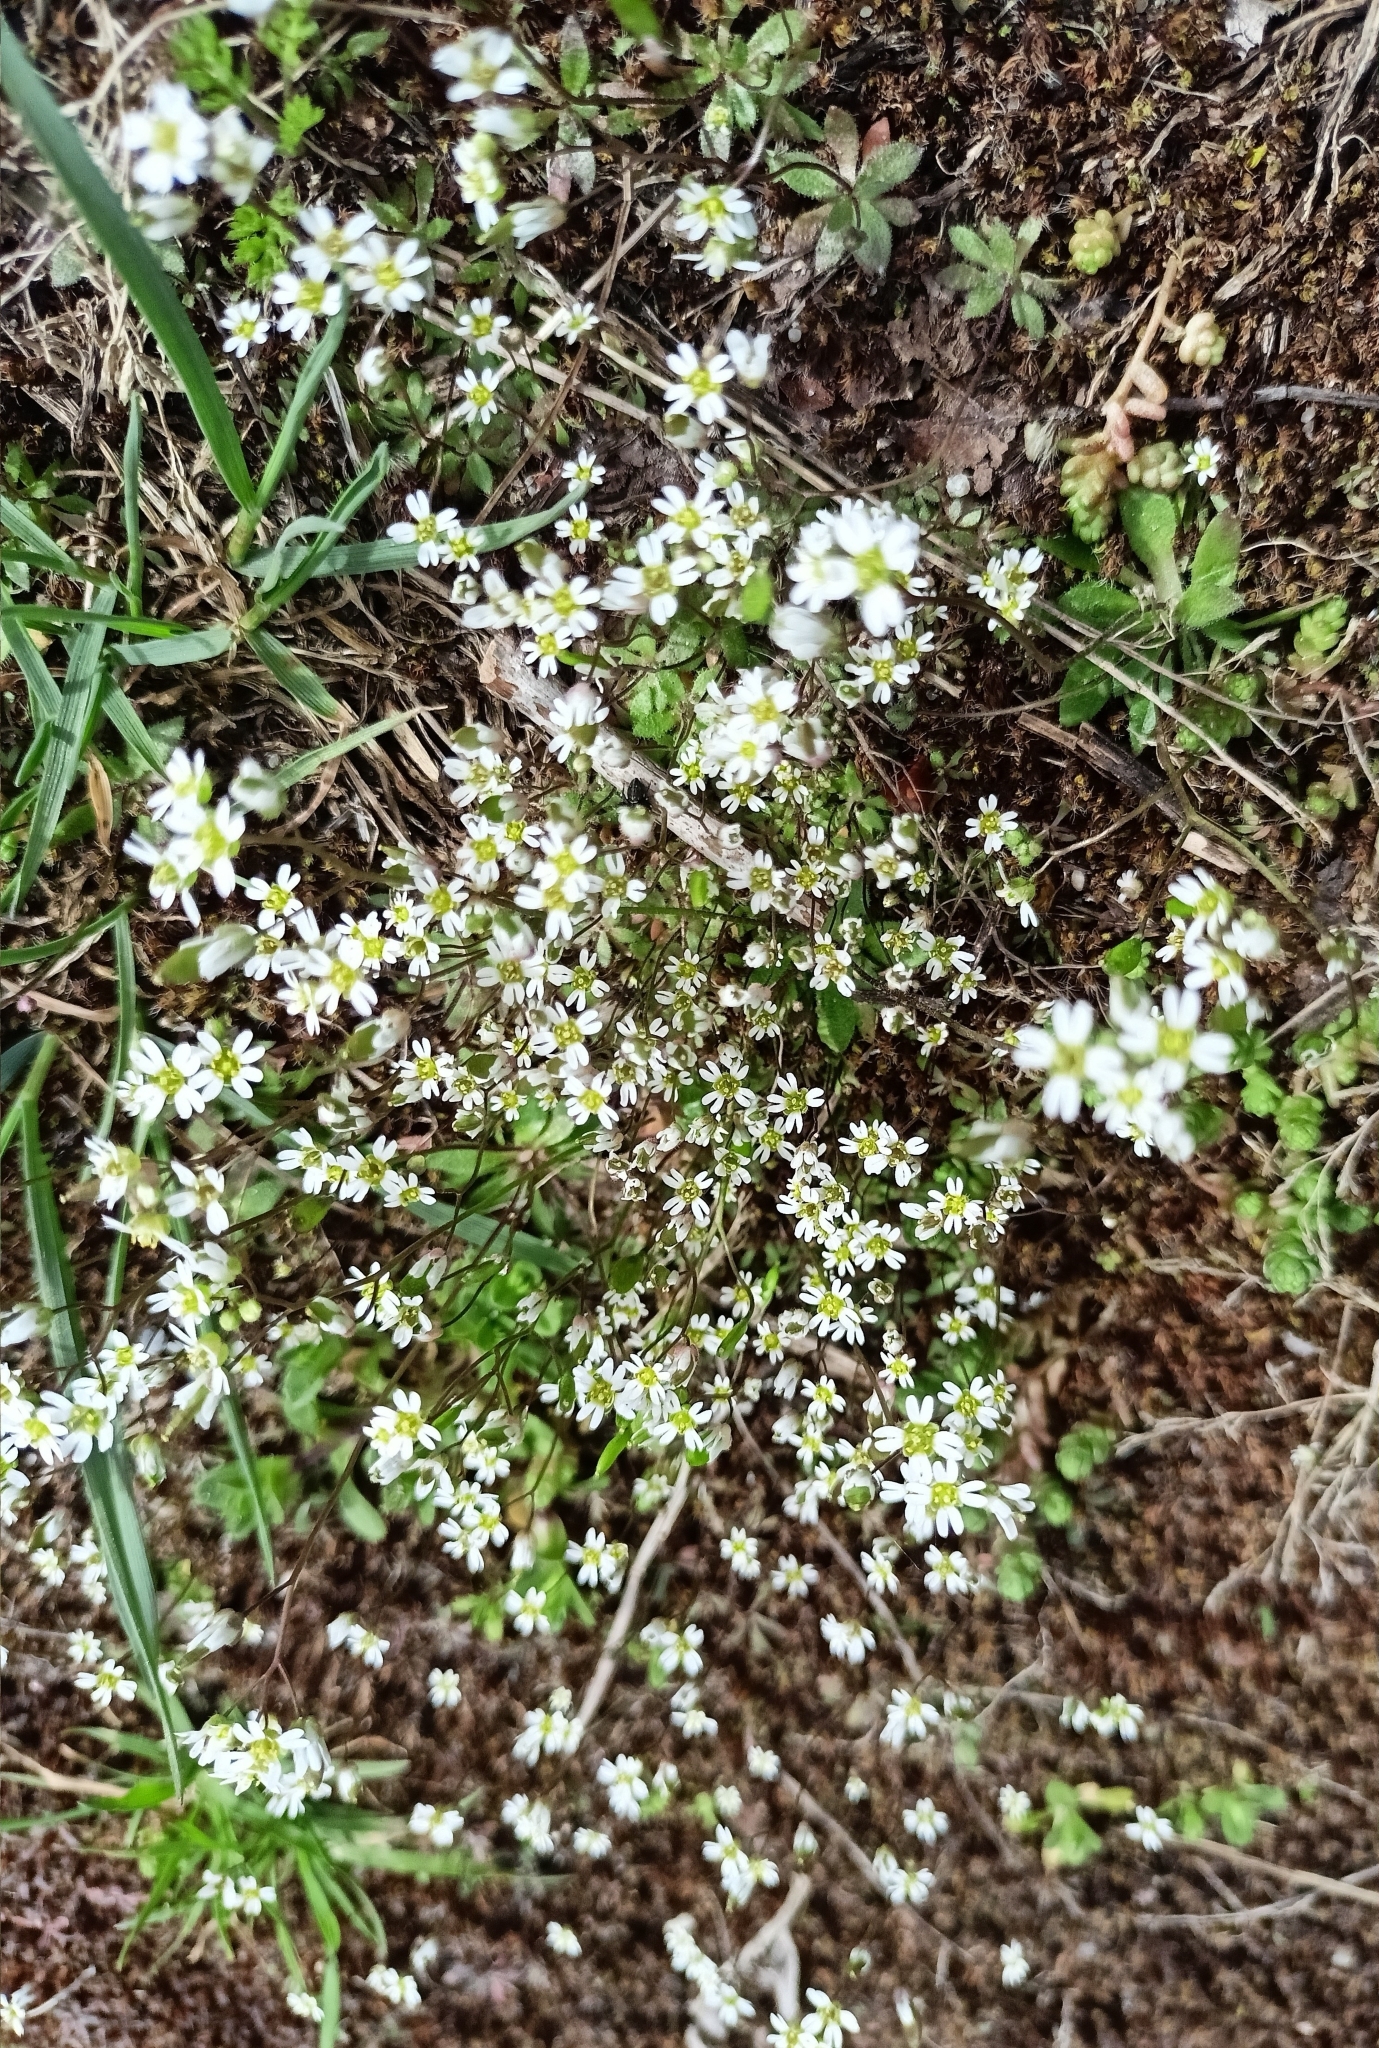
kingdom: Plantae
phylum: Tracheophyta
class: Magnoliopsida
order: Brassicales
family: Brassicaceae
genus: Draba
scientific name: Draba verna
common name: Spring draba
